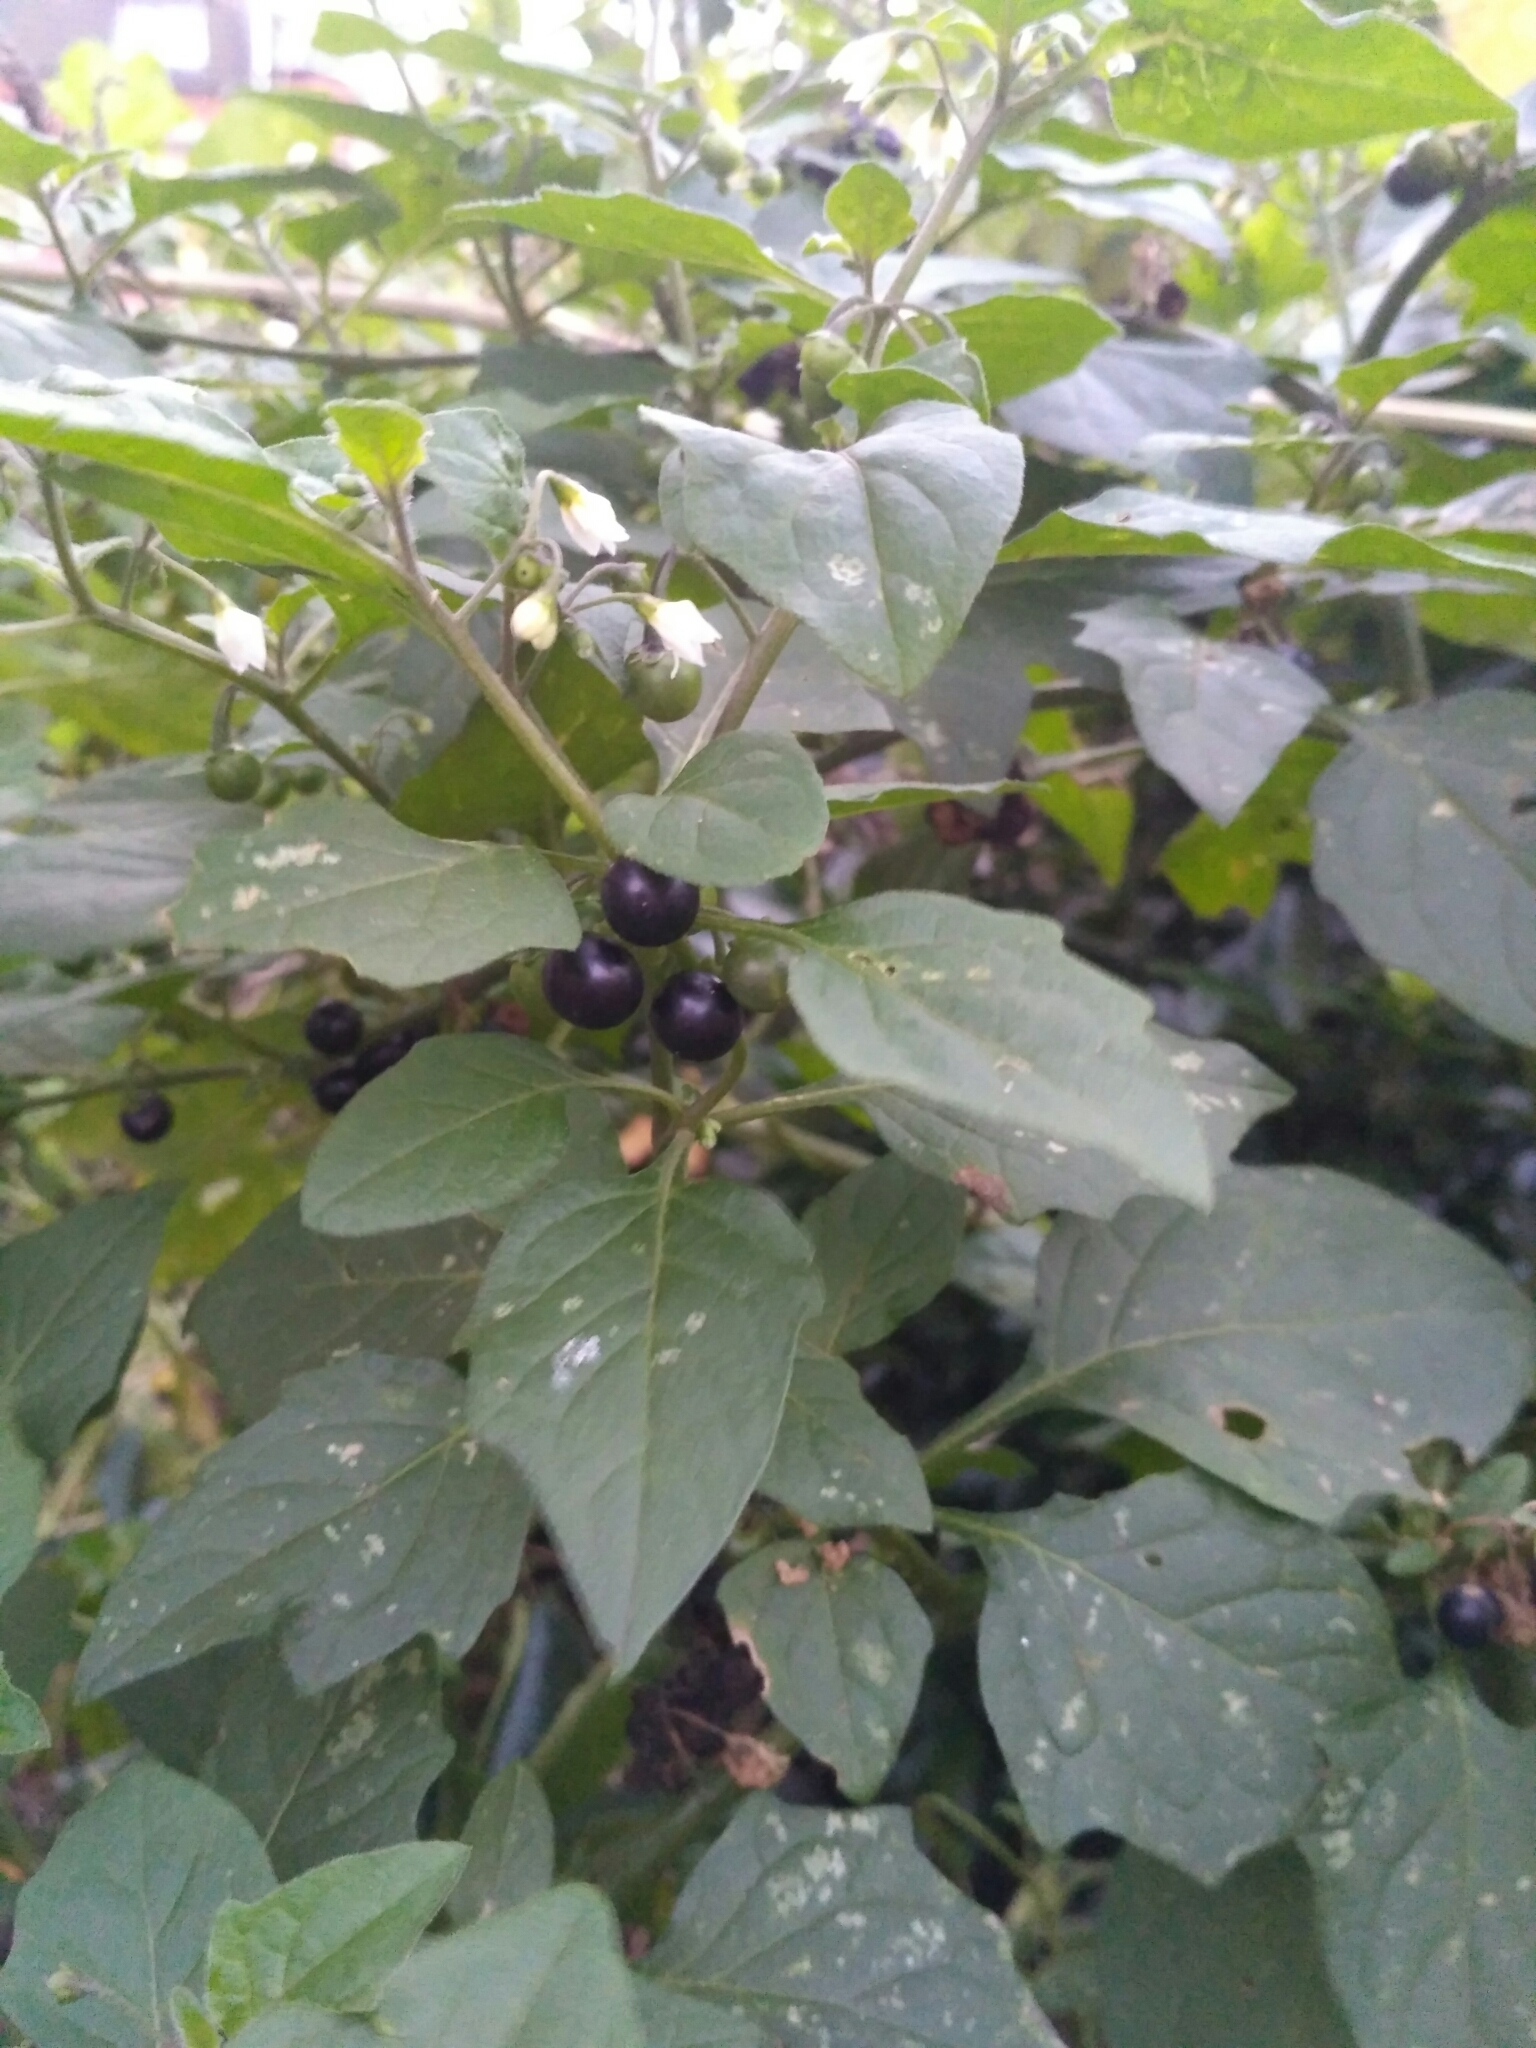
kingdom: Plantae
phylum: Tracheophyta
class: Magnoliopsida
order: Solanales
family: Solanaceae
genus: Solanum
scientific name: Solanum nigrum
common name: Black nightshade
